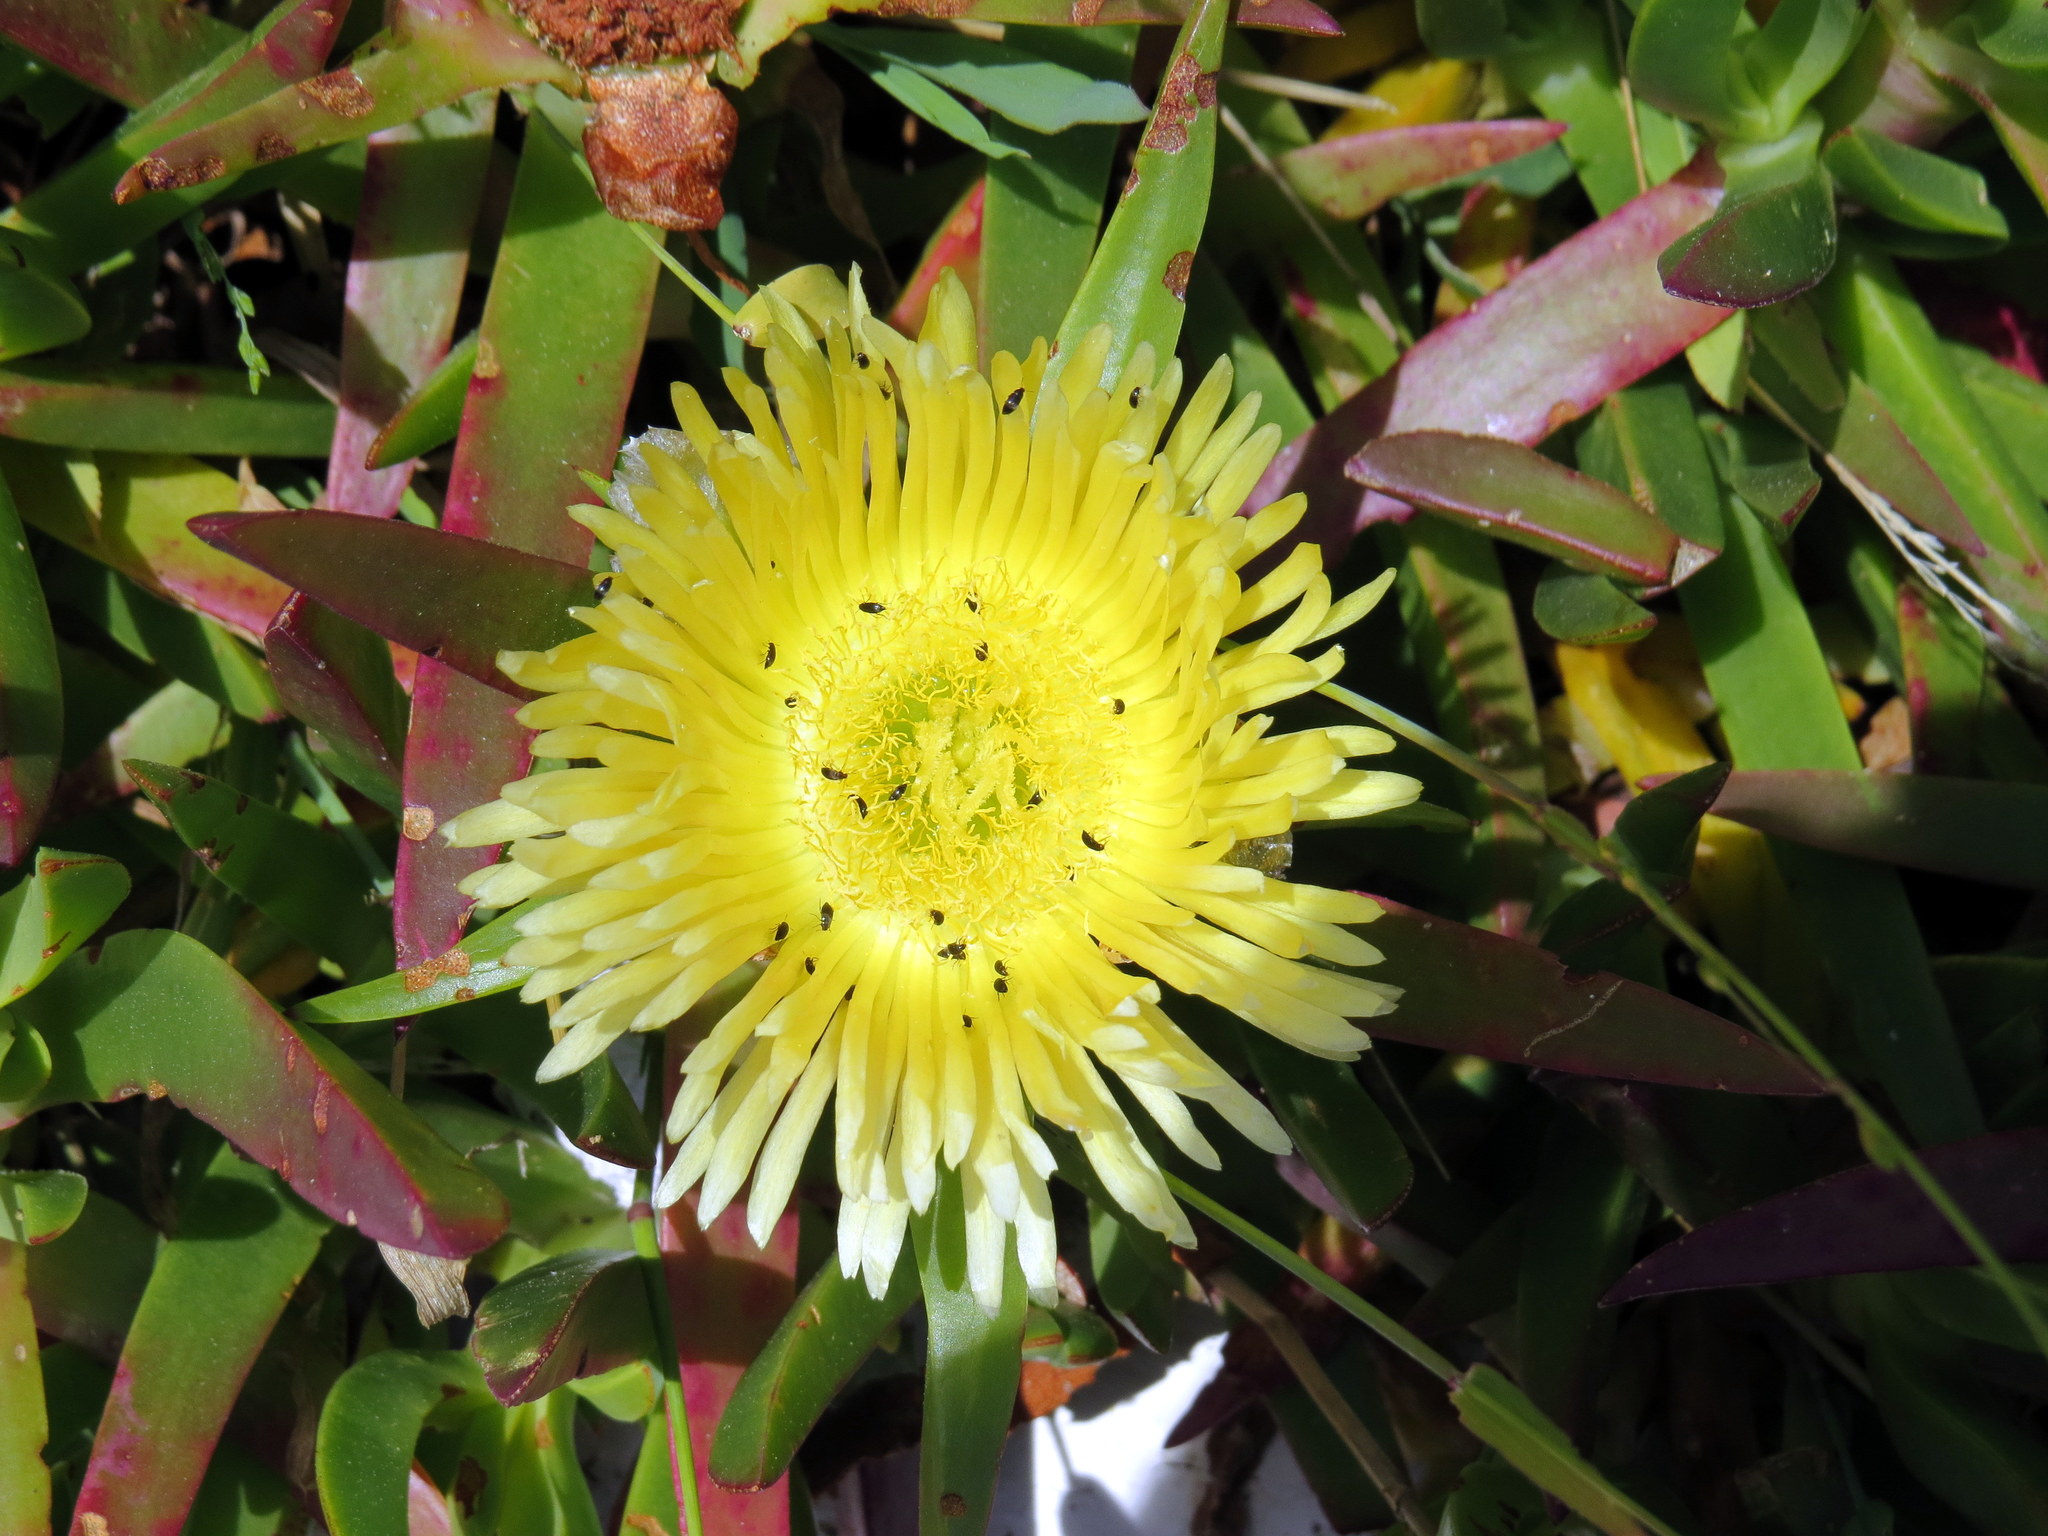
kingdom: Plantae
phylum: Tracheophyta
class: Magnoliopsida
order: Caryophyllales
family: Aizoaceae
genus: Carpobrotus
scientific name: Carpobrotus edulis
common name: Hottentot-fig
